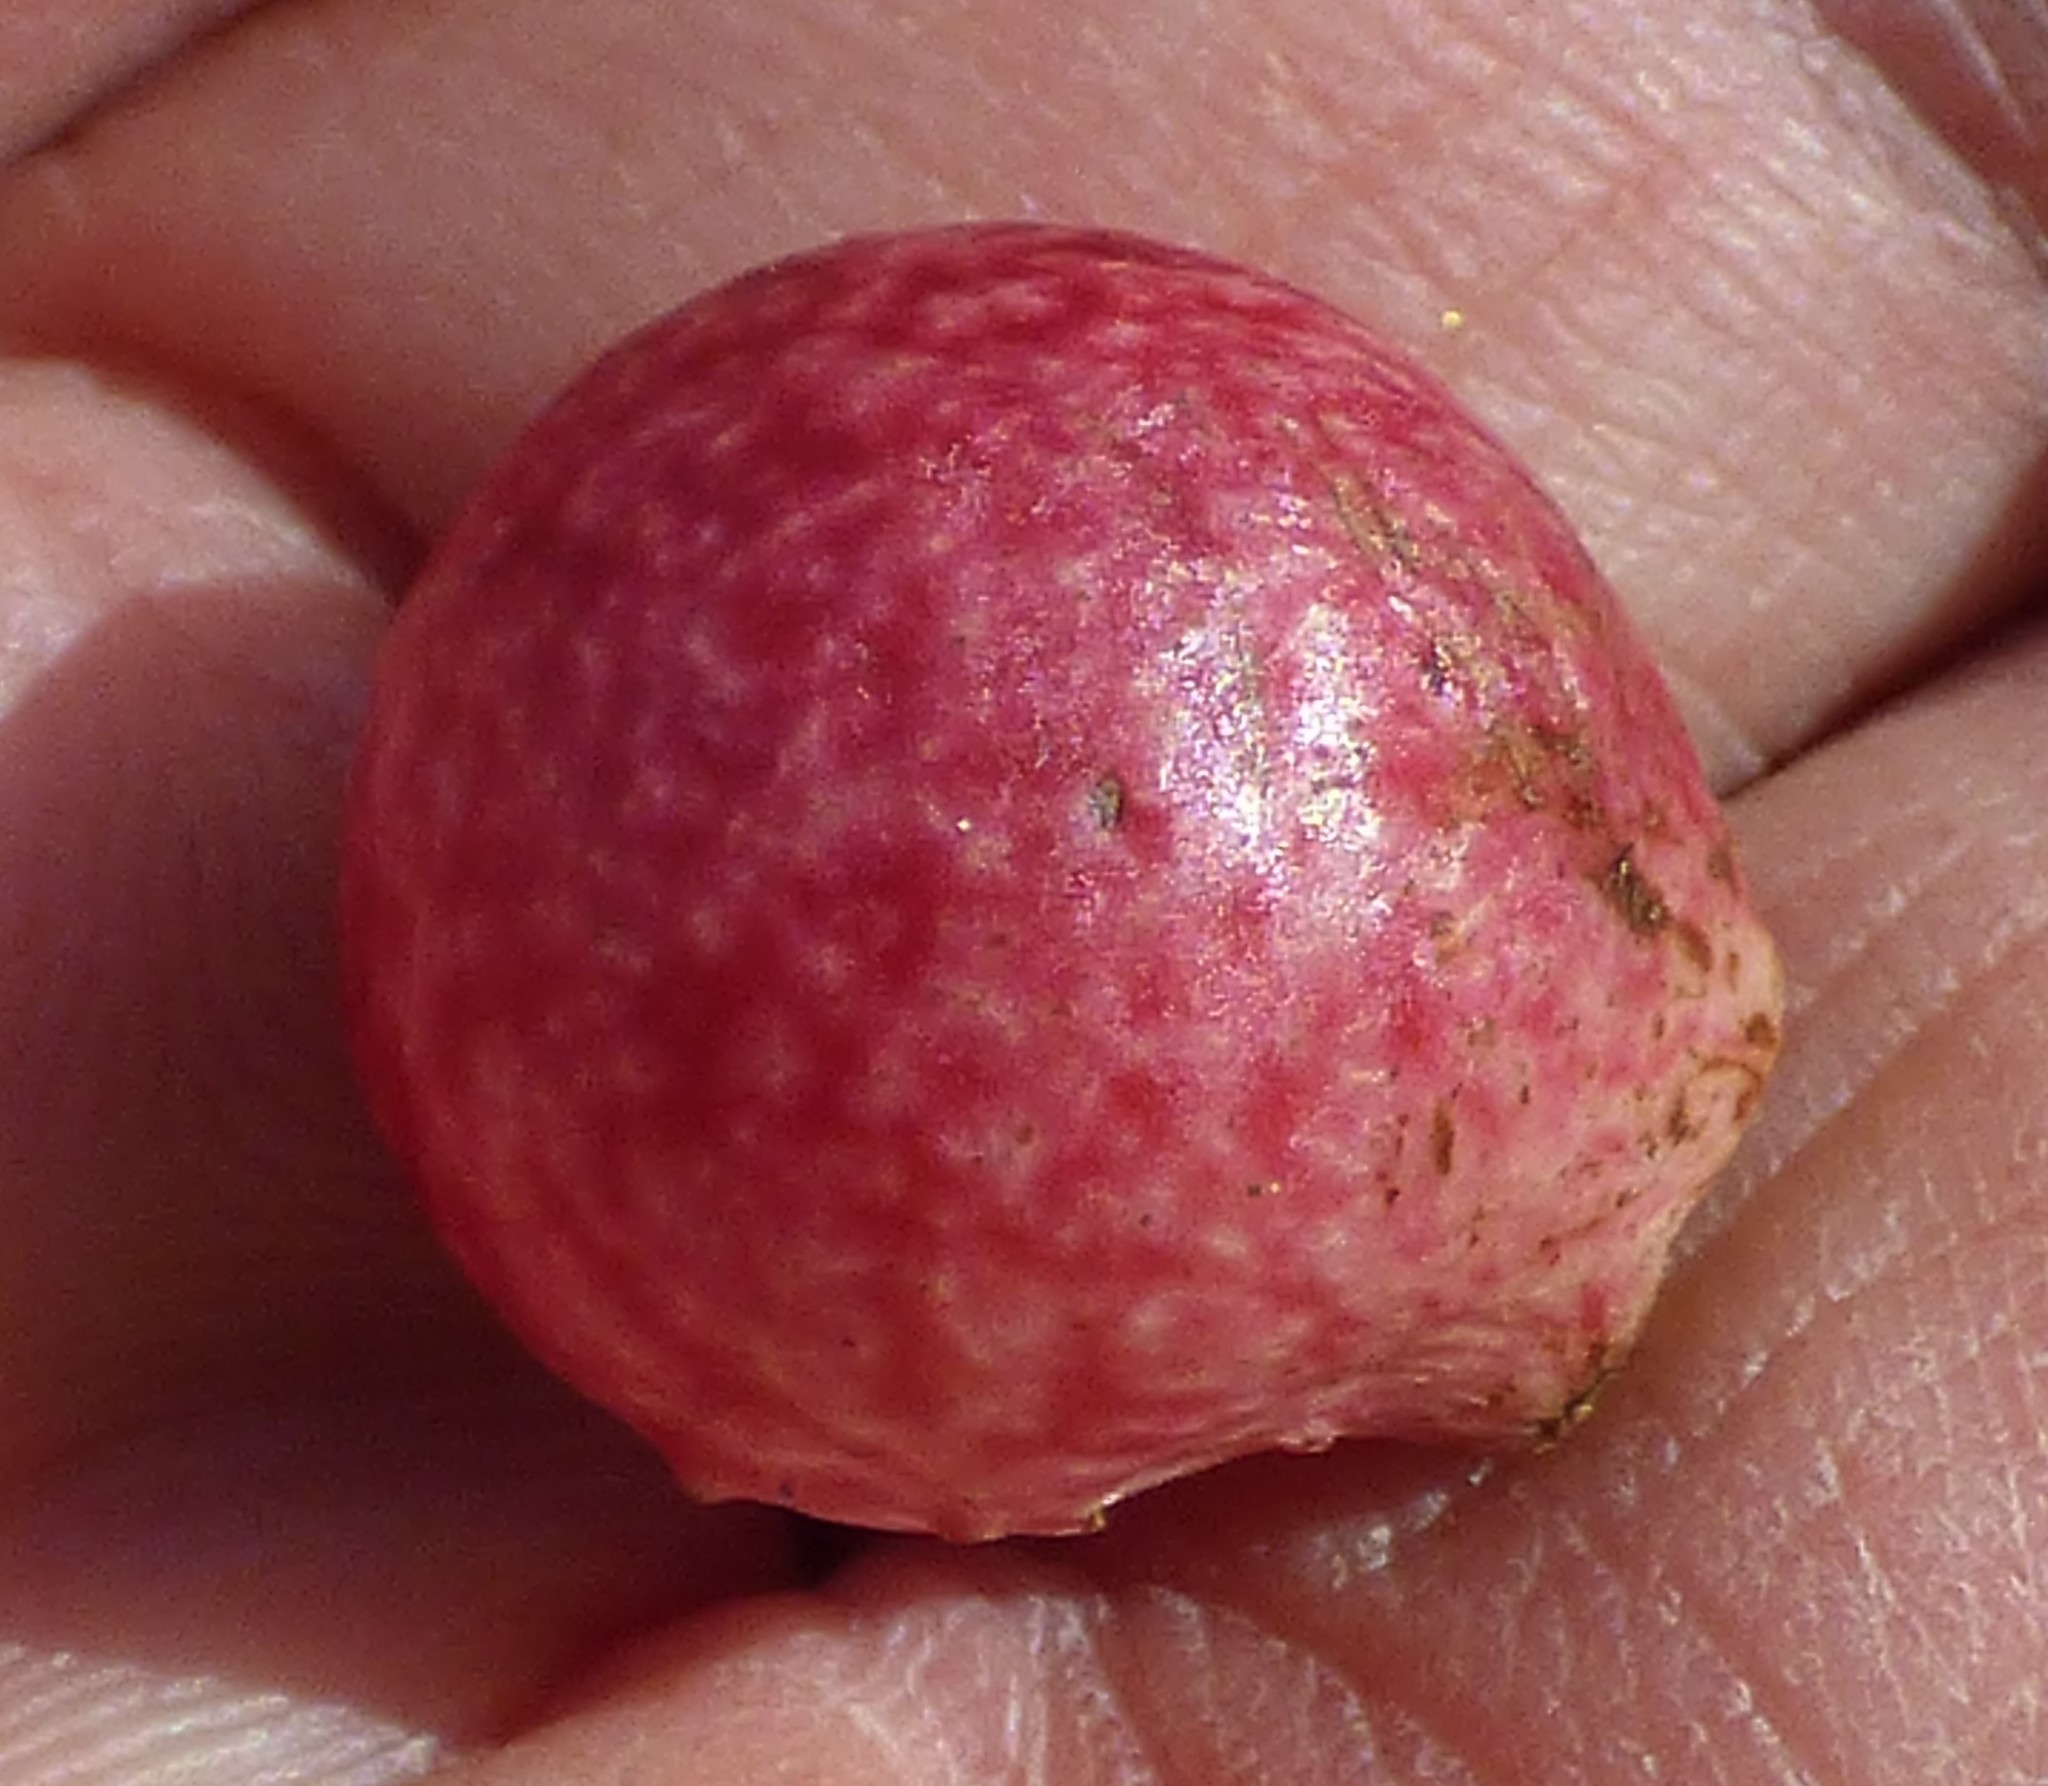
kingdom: Animalia
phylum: Arthropoda
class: Insecta
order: Hymenoptera
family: Cynipidae
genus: Amphibolips
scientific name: Amphibolips
